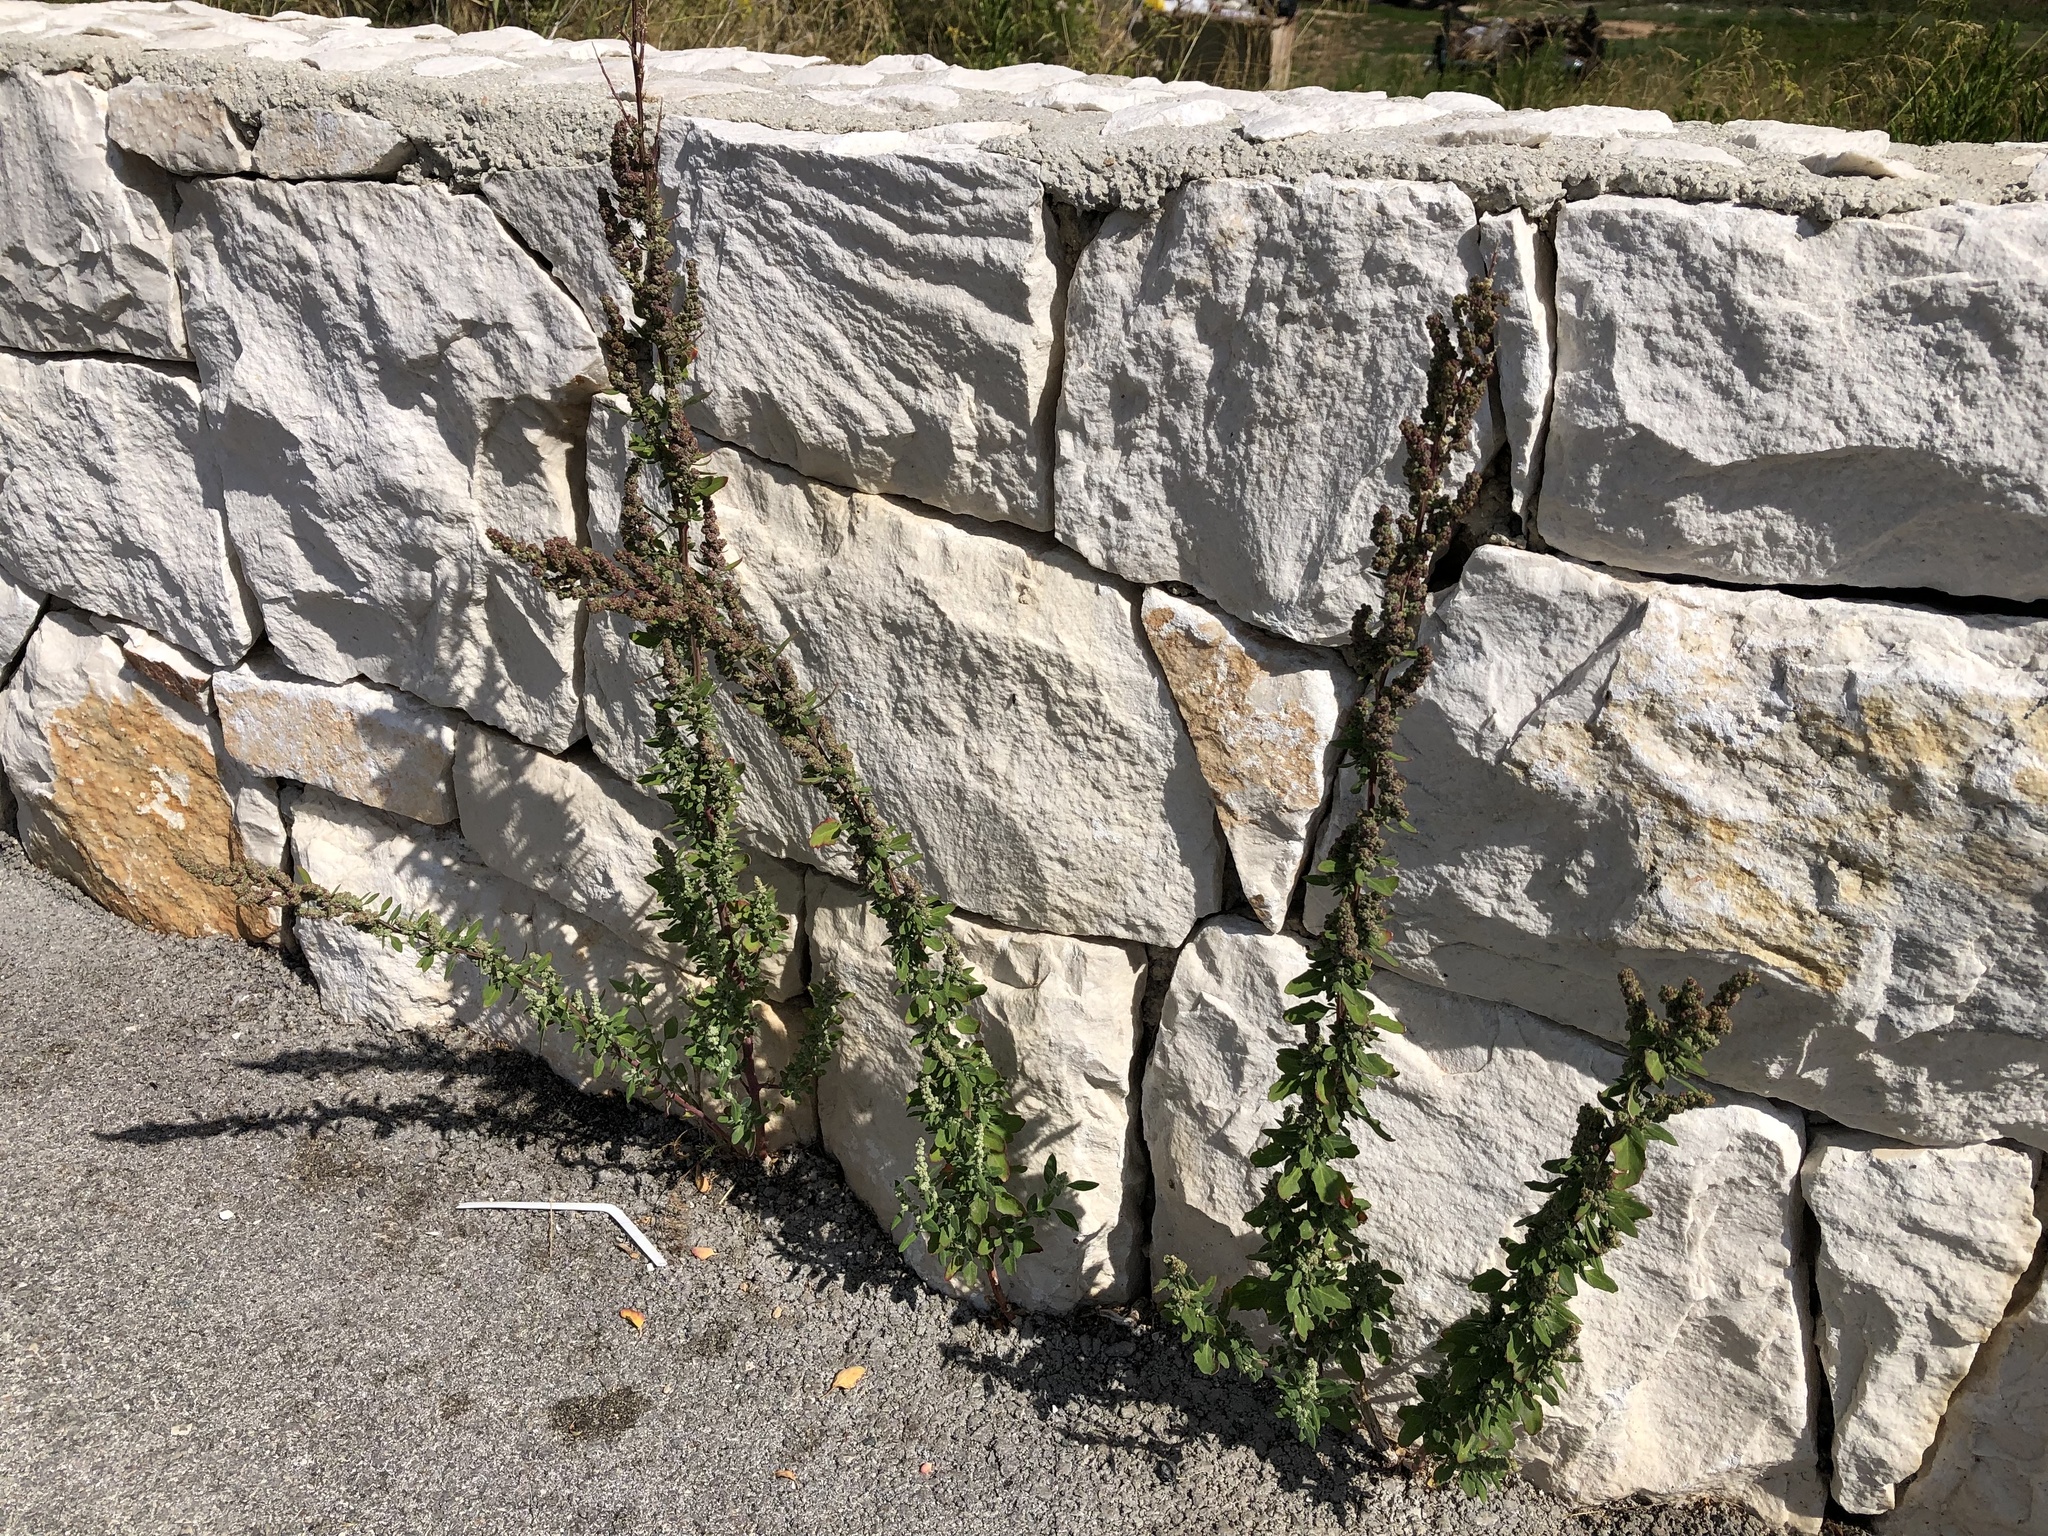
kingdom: Plantae
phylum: Tracheophyta
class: Magnoliopsida
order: Caryophyllales
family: Amaranthaceae
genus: Chenopodium
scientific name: Chenopodium album
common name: Fat-hen
